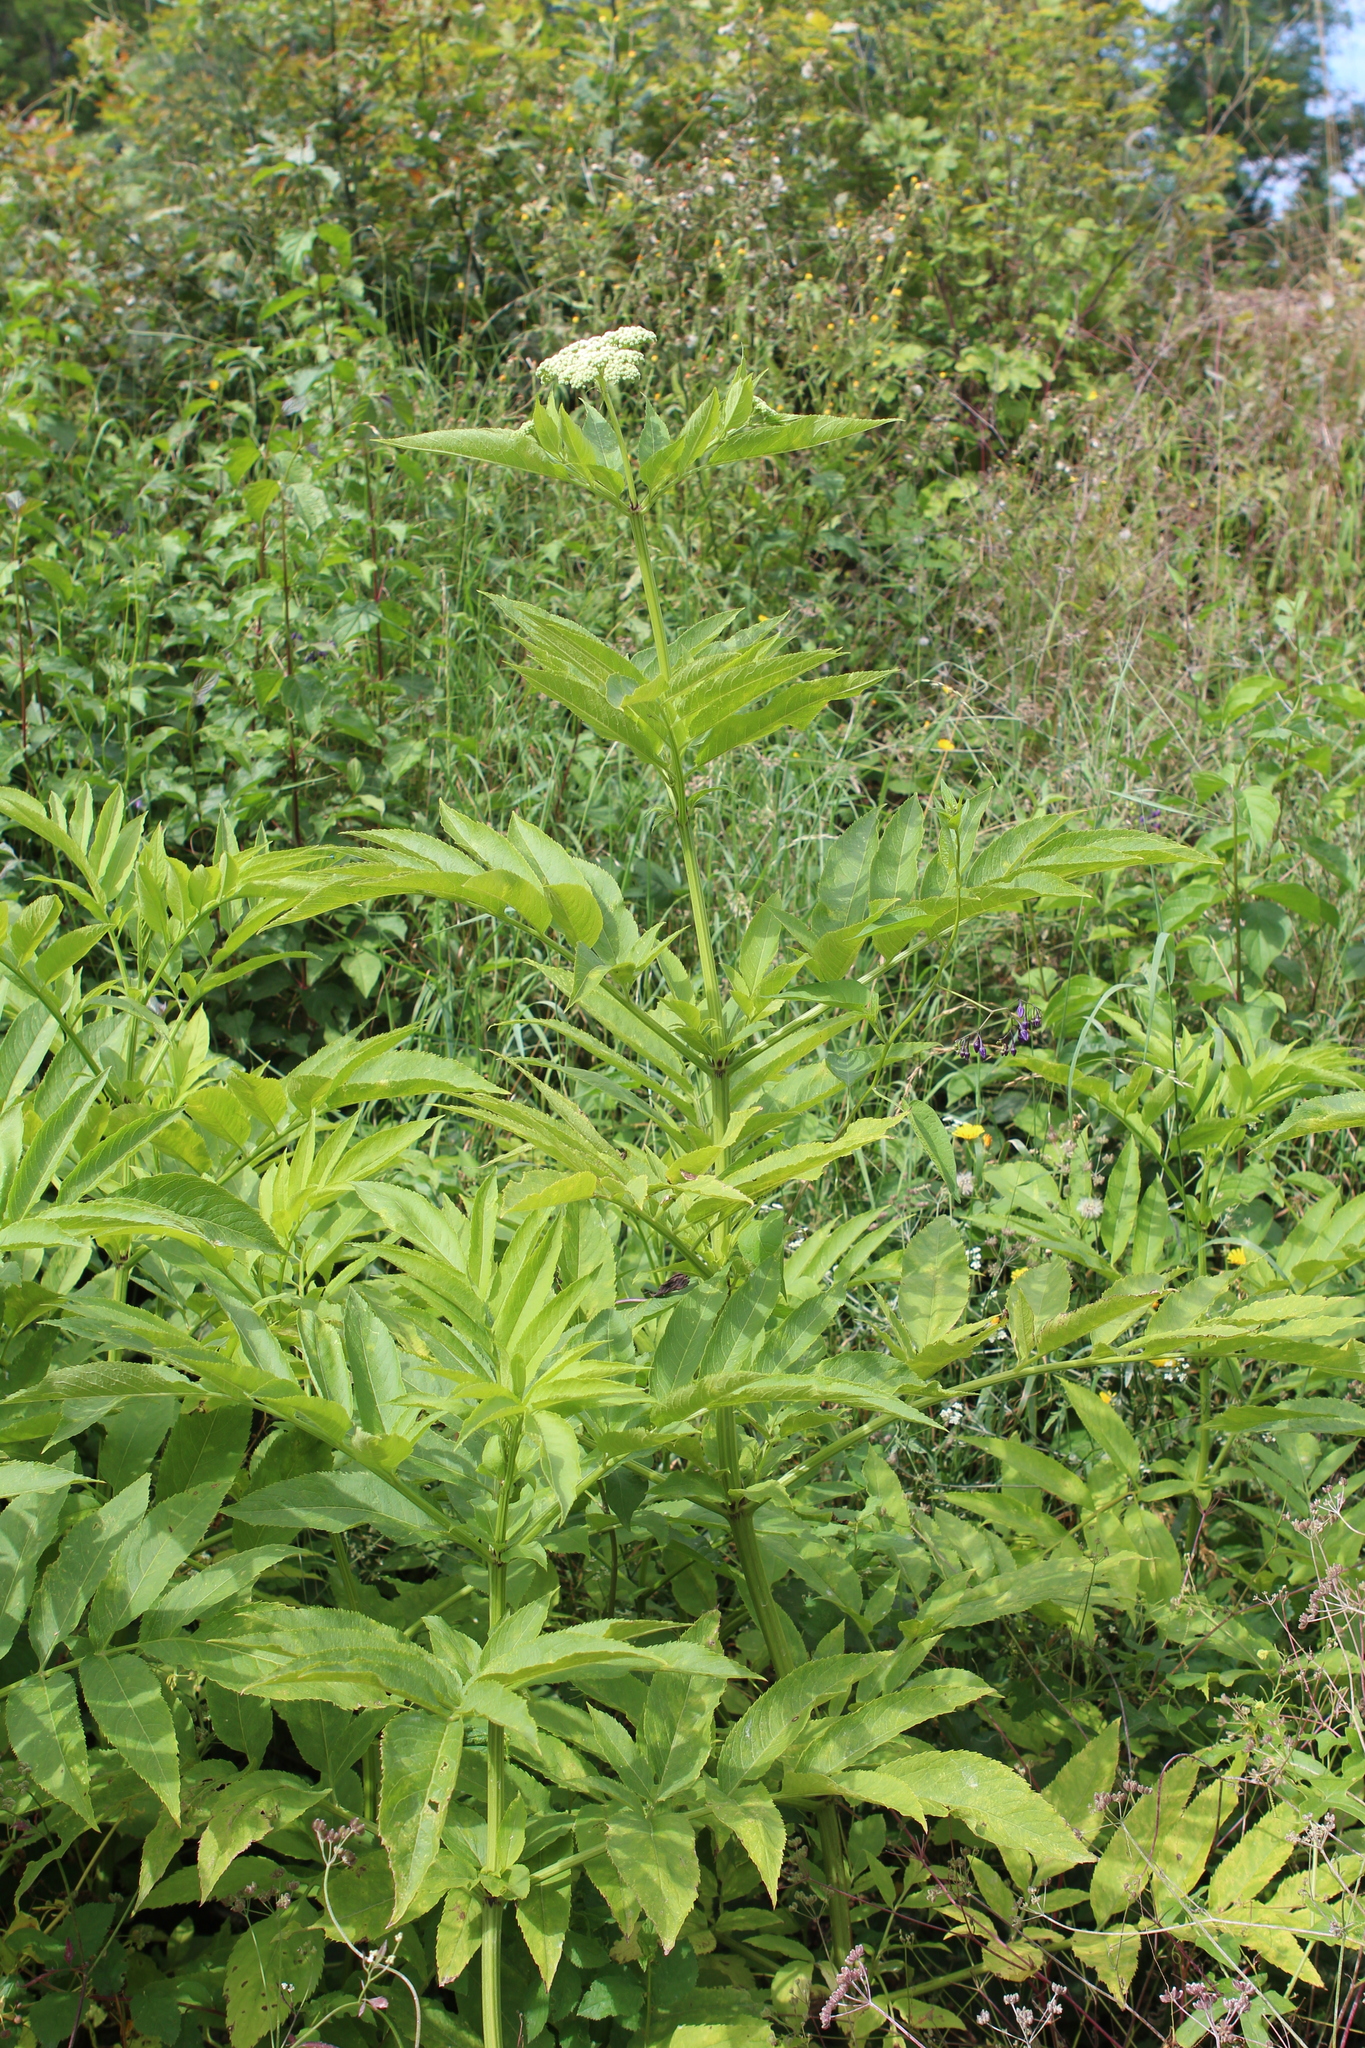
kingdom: Plantae
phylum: Tracheophyta
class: Magnoliopsida
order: Dipsacales
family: Viburnaceae
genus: Sambucus
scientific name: Sambucus ebulus
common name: Dwarf elder
